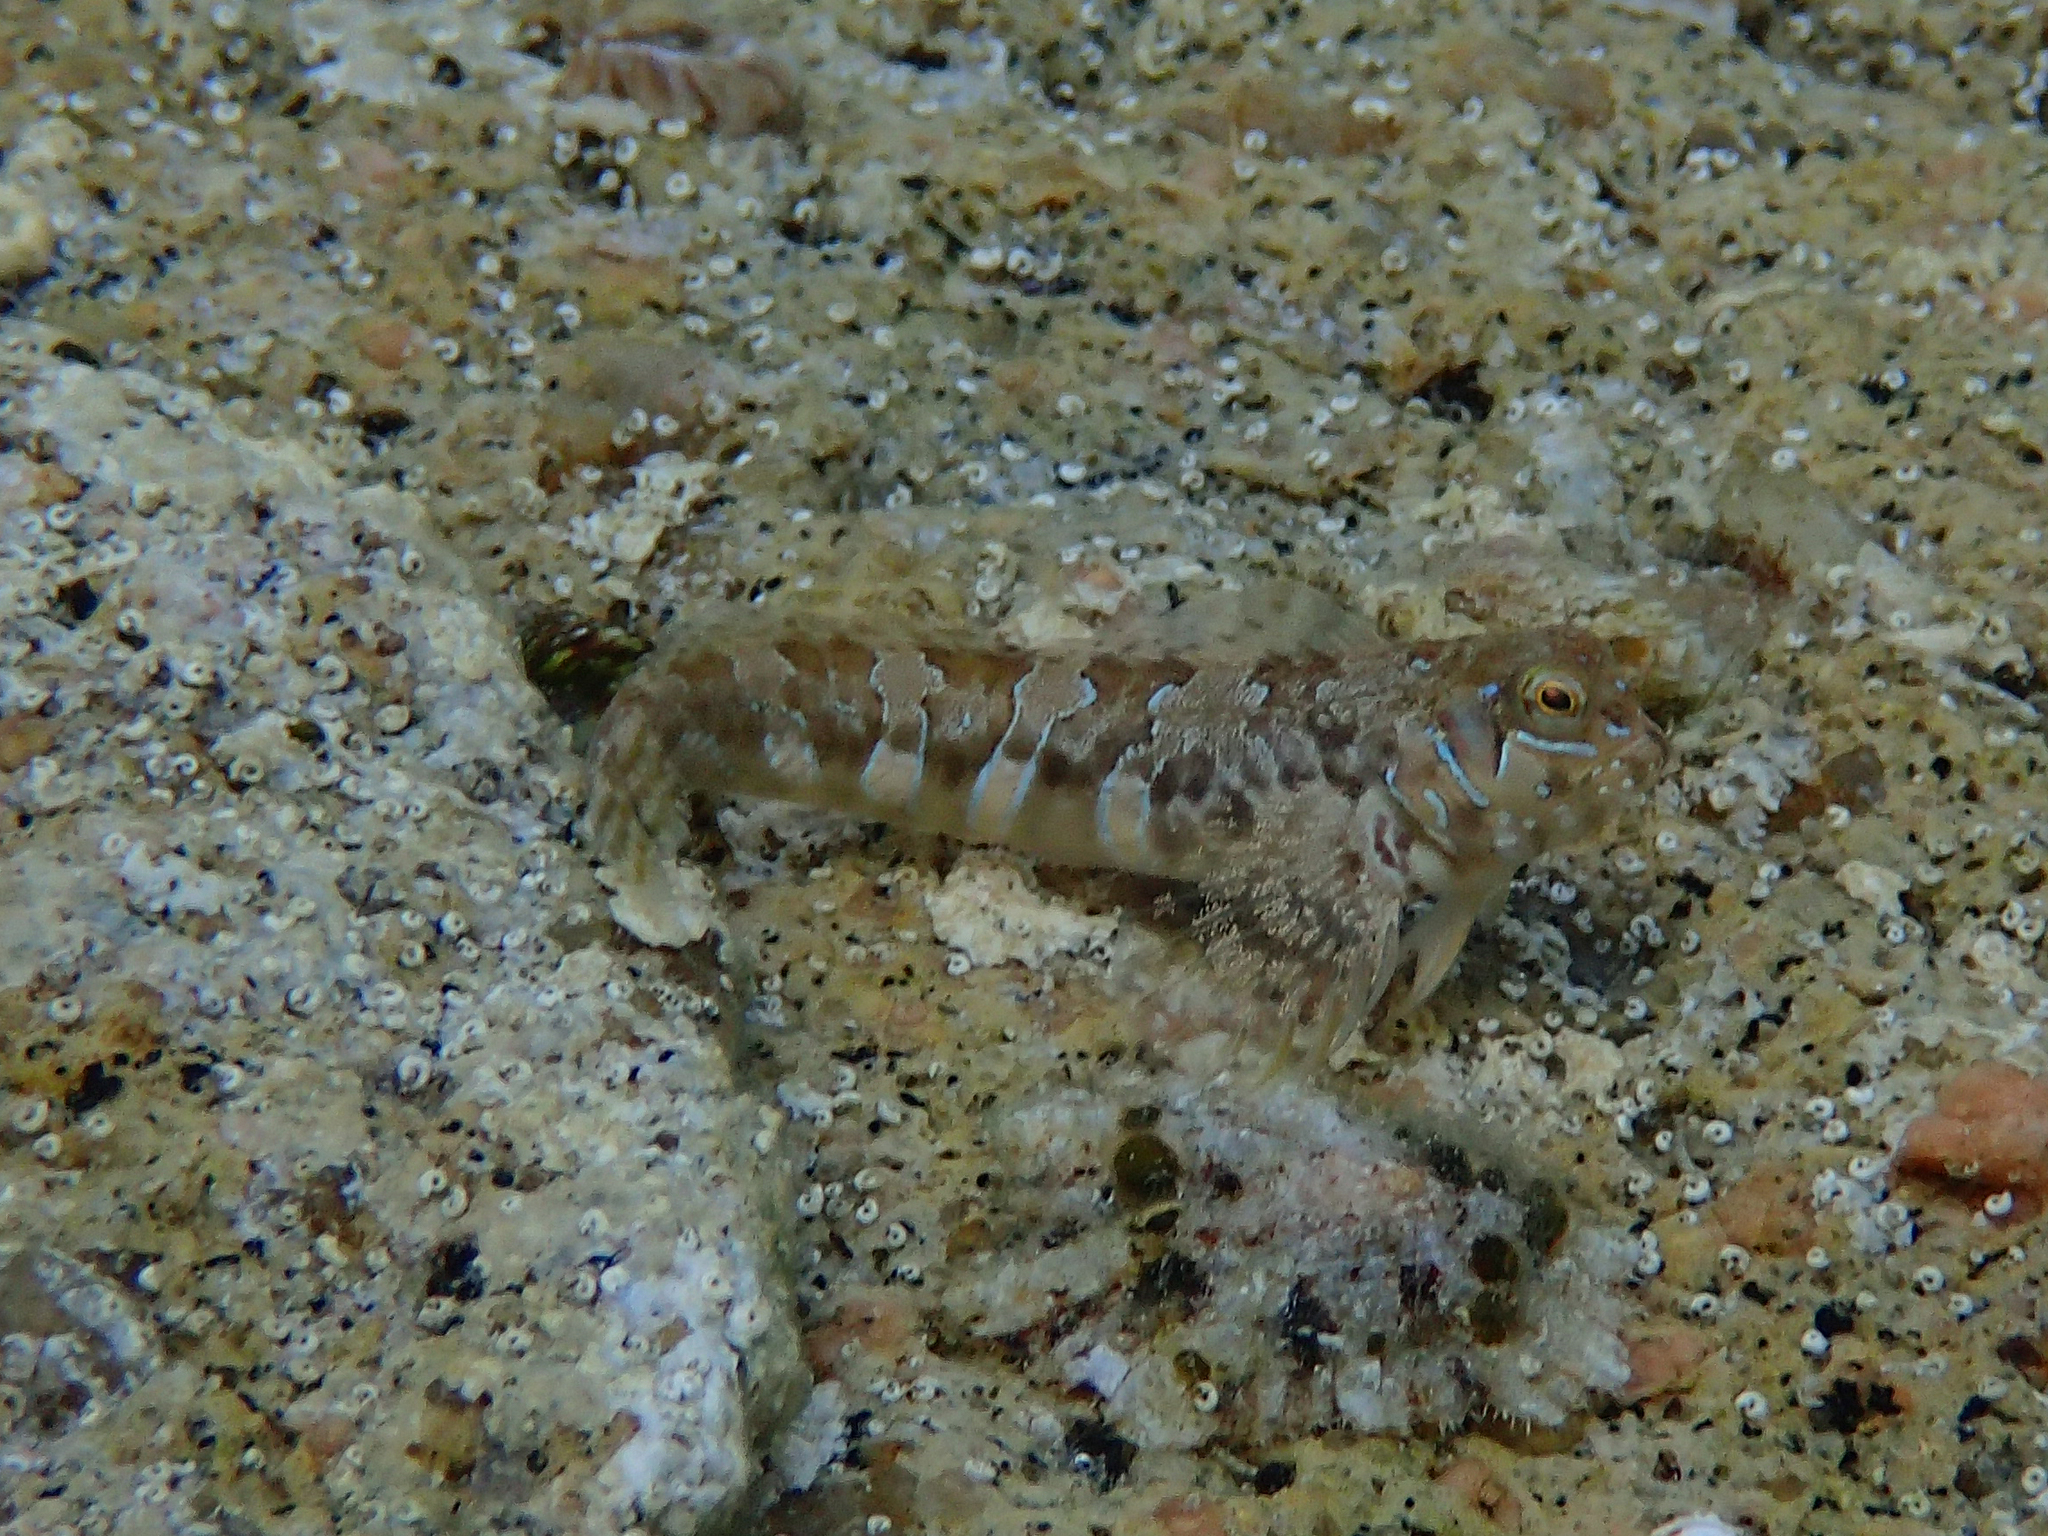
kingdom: Animalia
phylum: Chordata
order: Perciformes
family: Blenniidae
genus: Aidablennius
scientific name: Aidablennius sphynx
